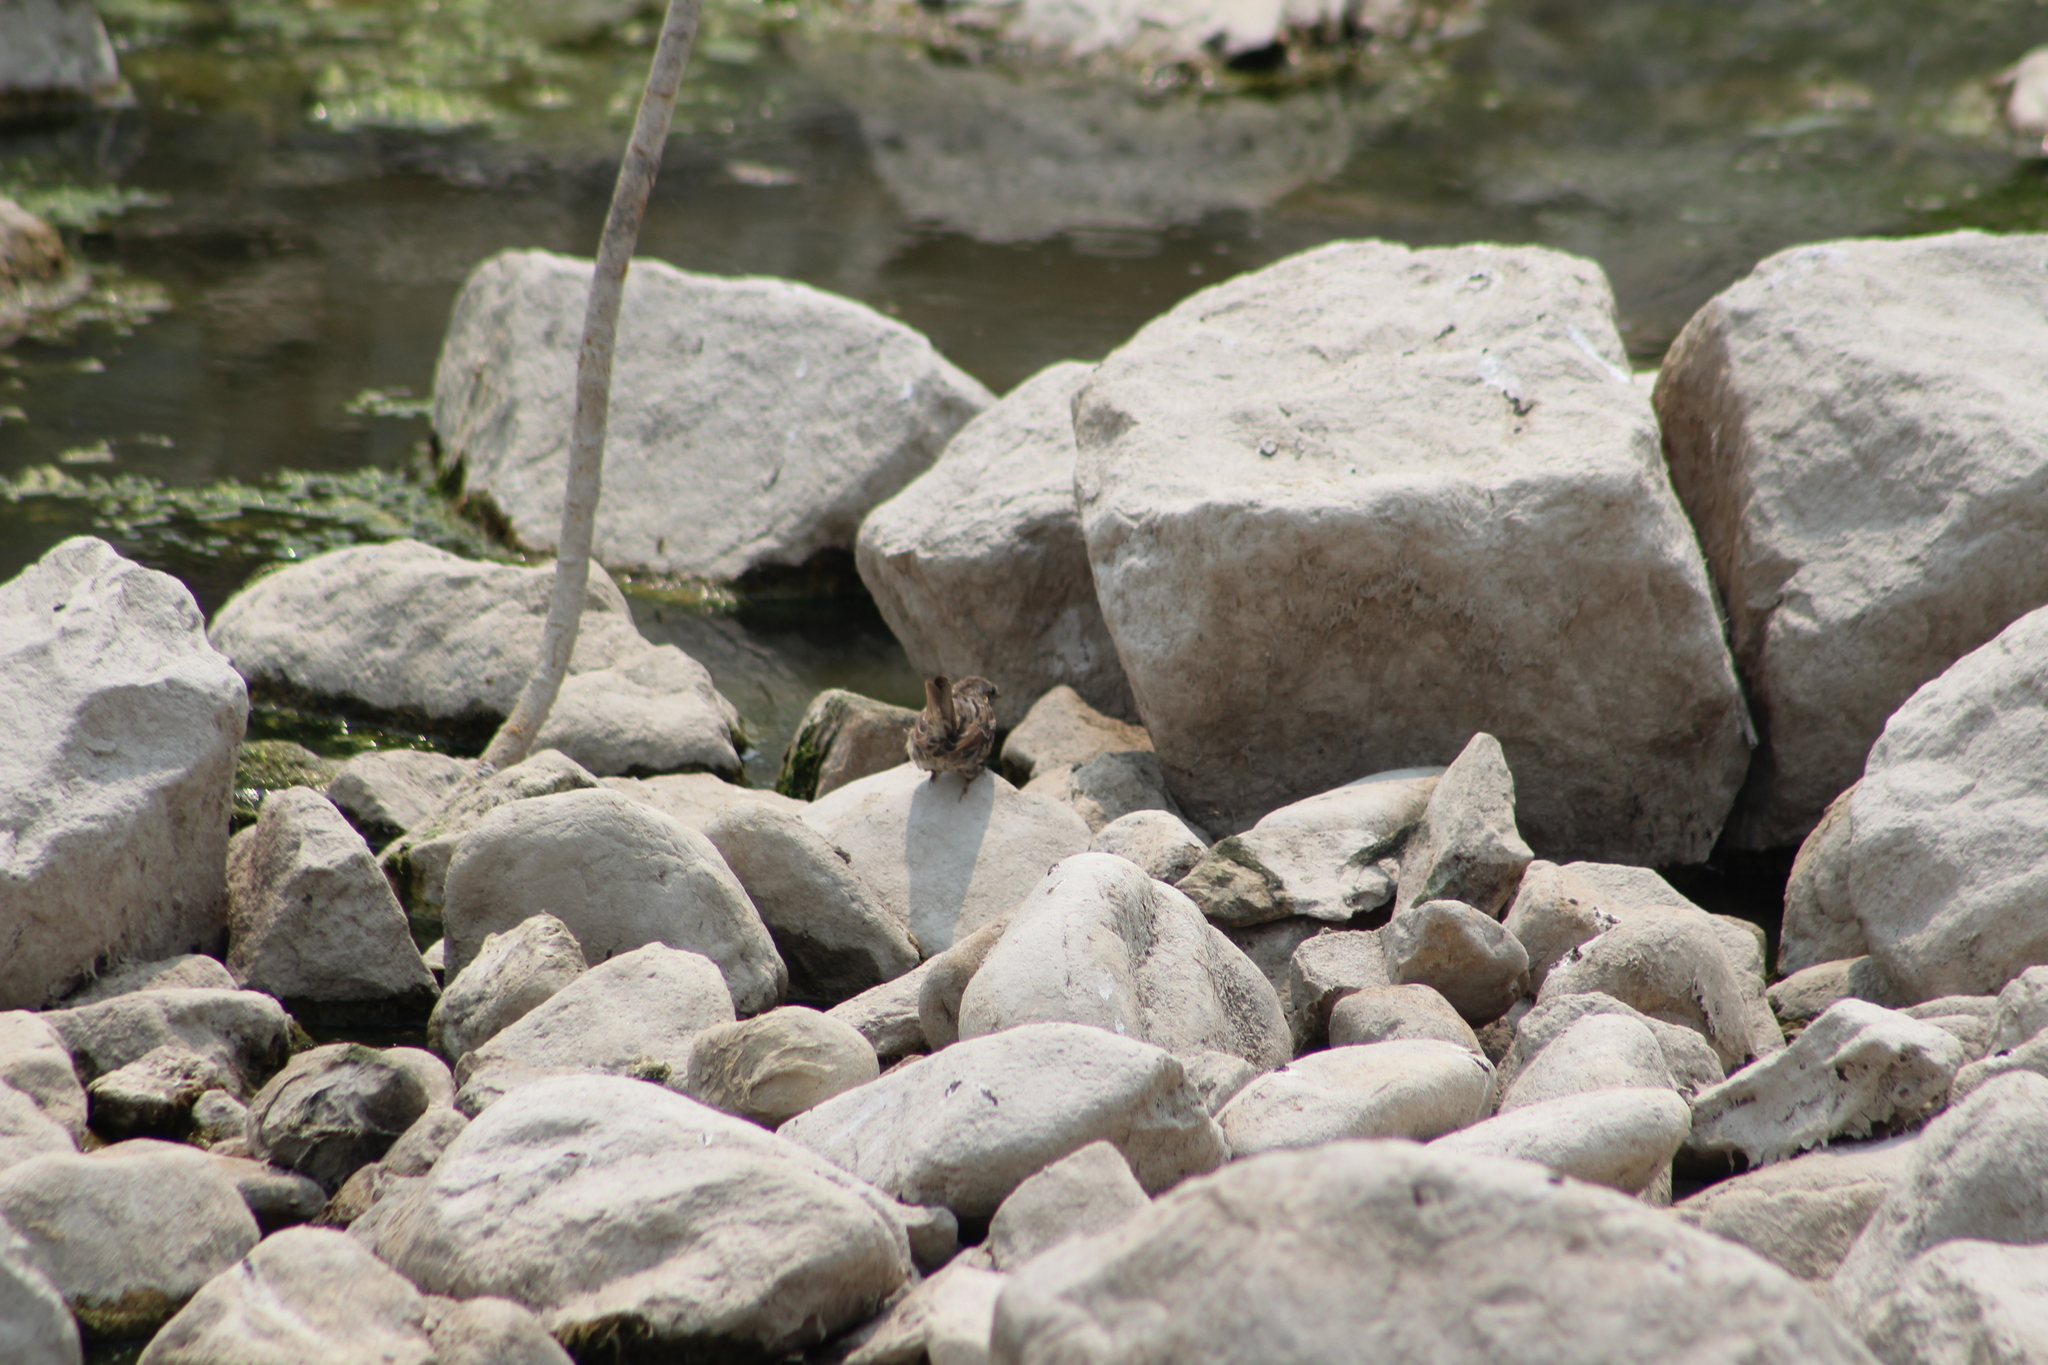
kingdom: Animalia
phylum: Chordata
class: Aves
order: Passeriformes
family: Passerellidae
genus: Melospiza
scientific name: Melospiza melodia
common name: Song sparrow
